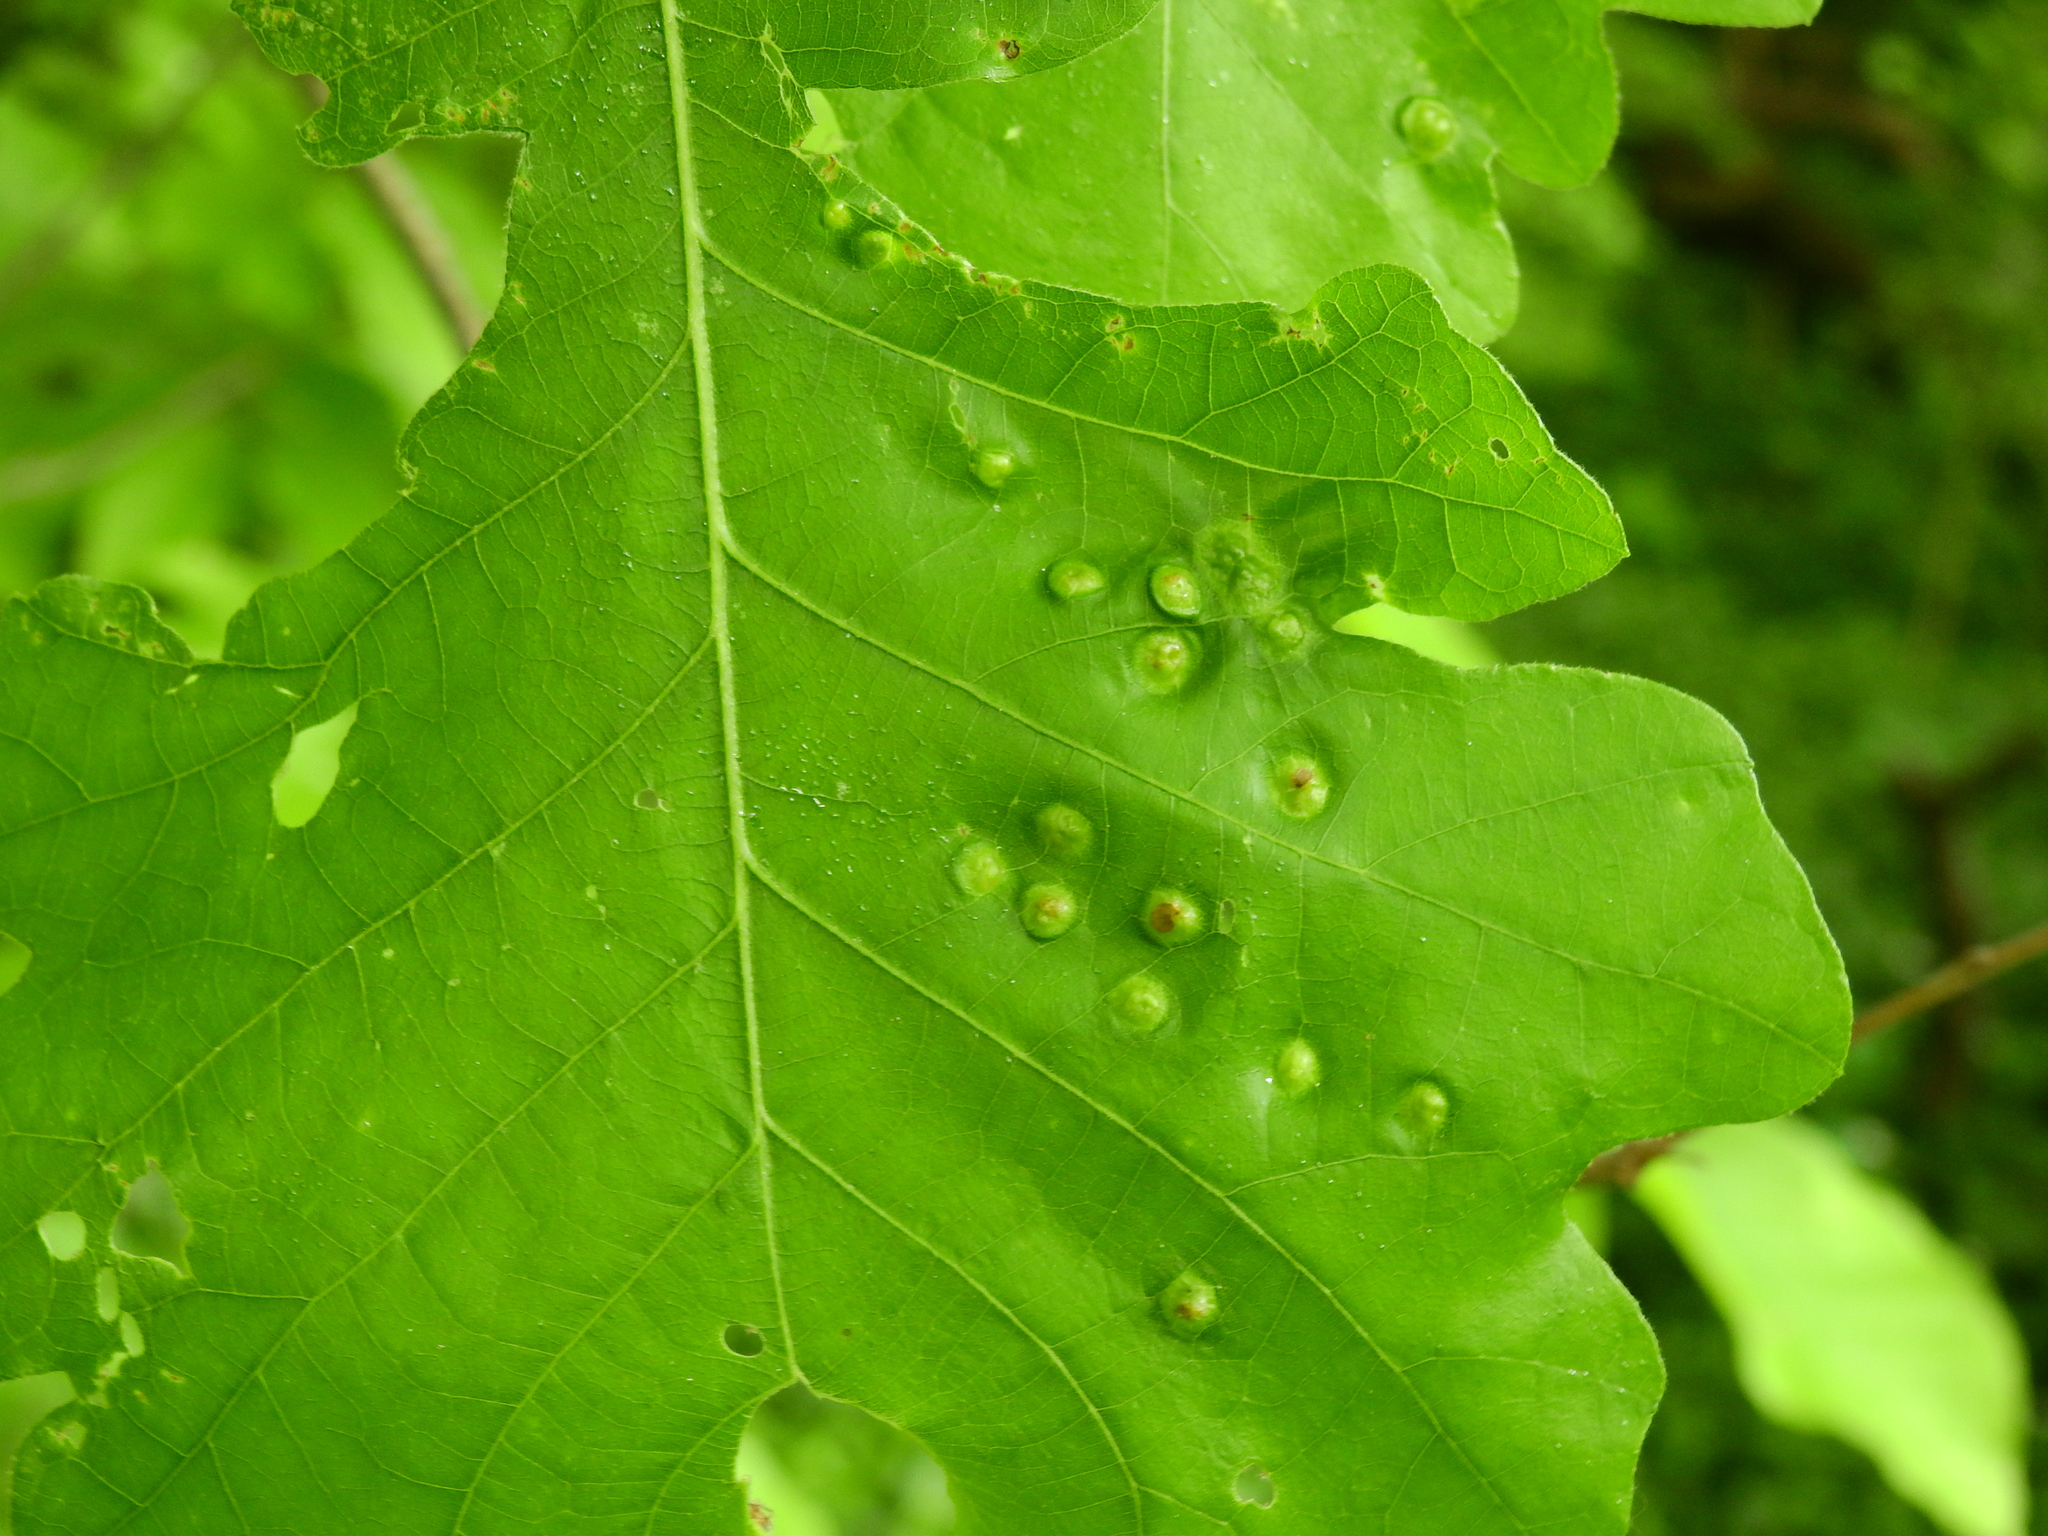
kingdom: Animalia
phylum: Arthropoda
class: Insecta
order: Hymenoptera
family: Cynipidae
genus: Callirhytis
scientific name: Callirhytis
